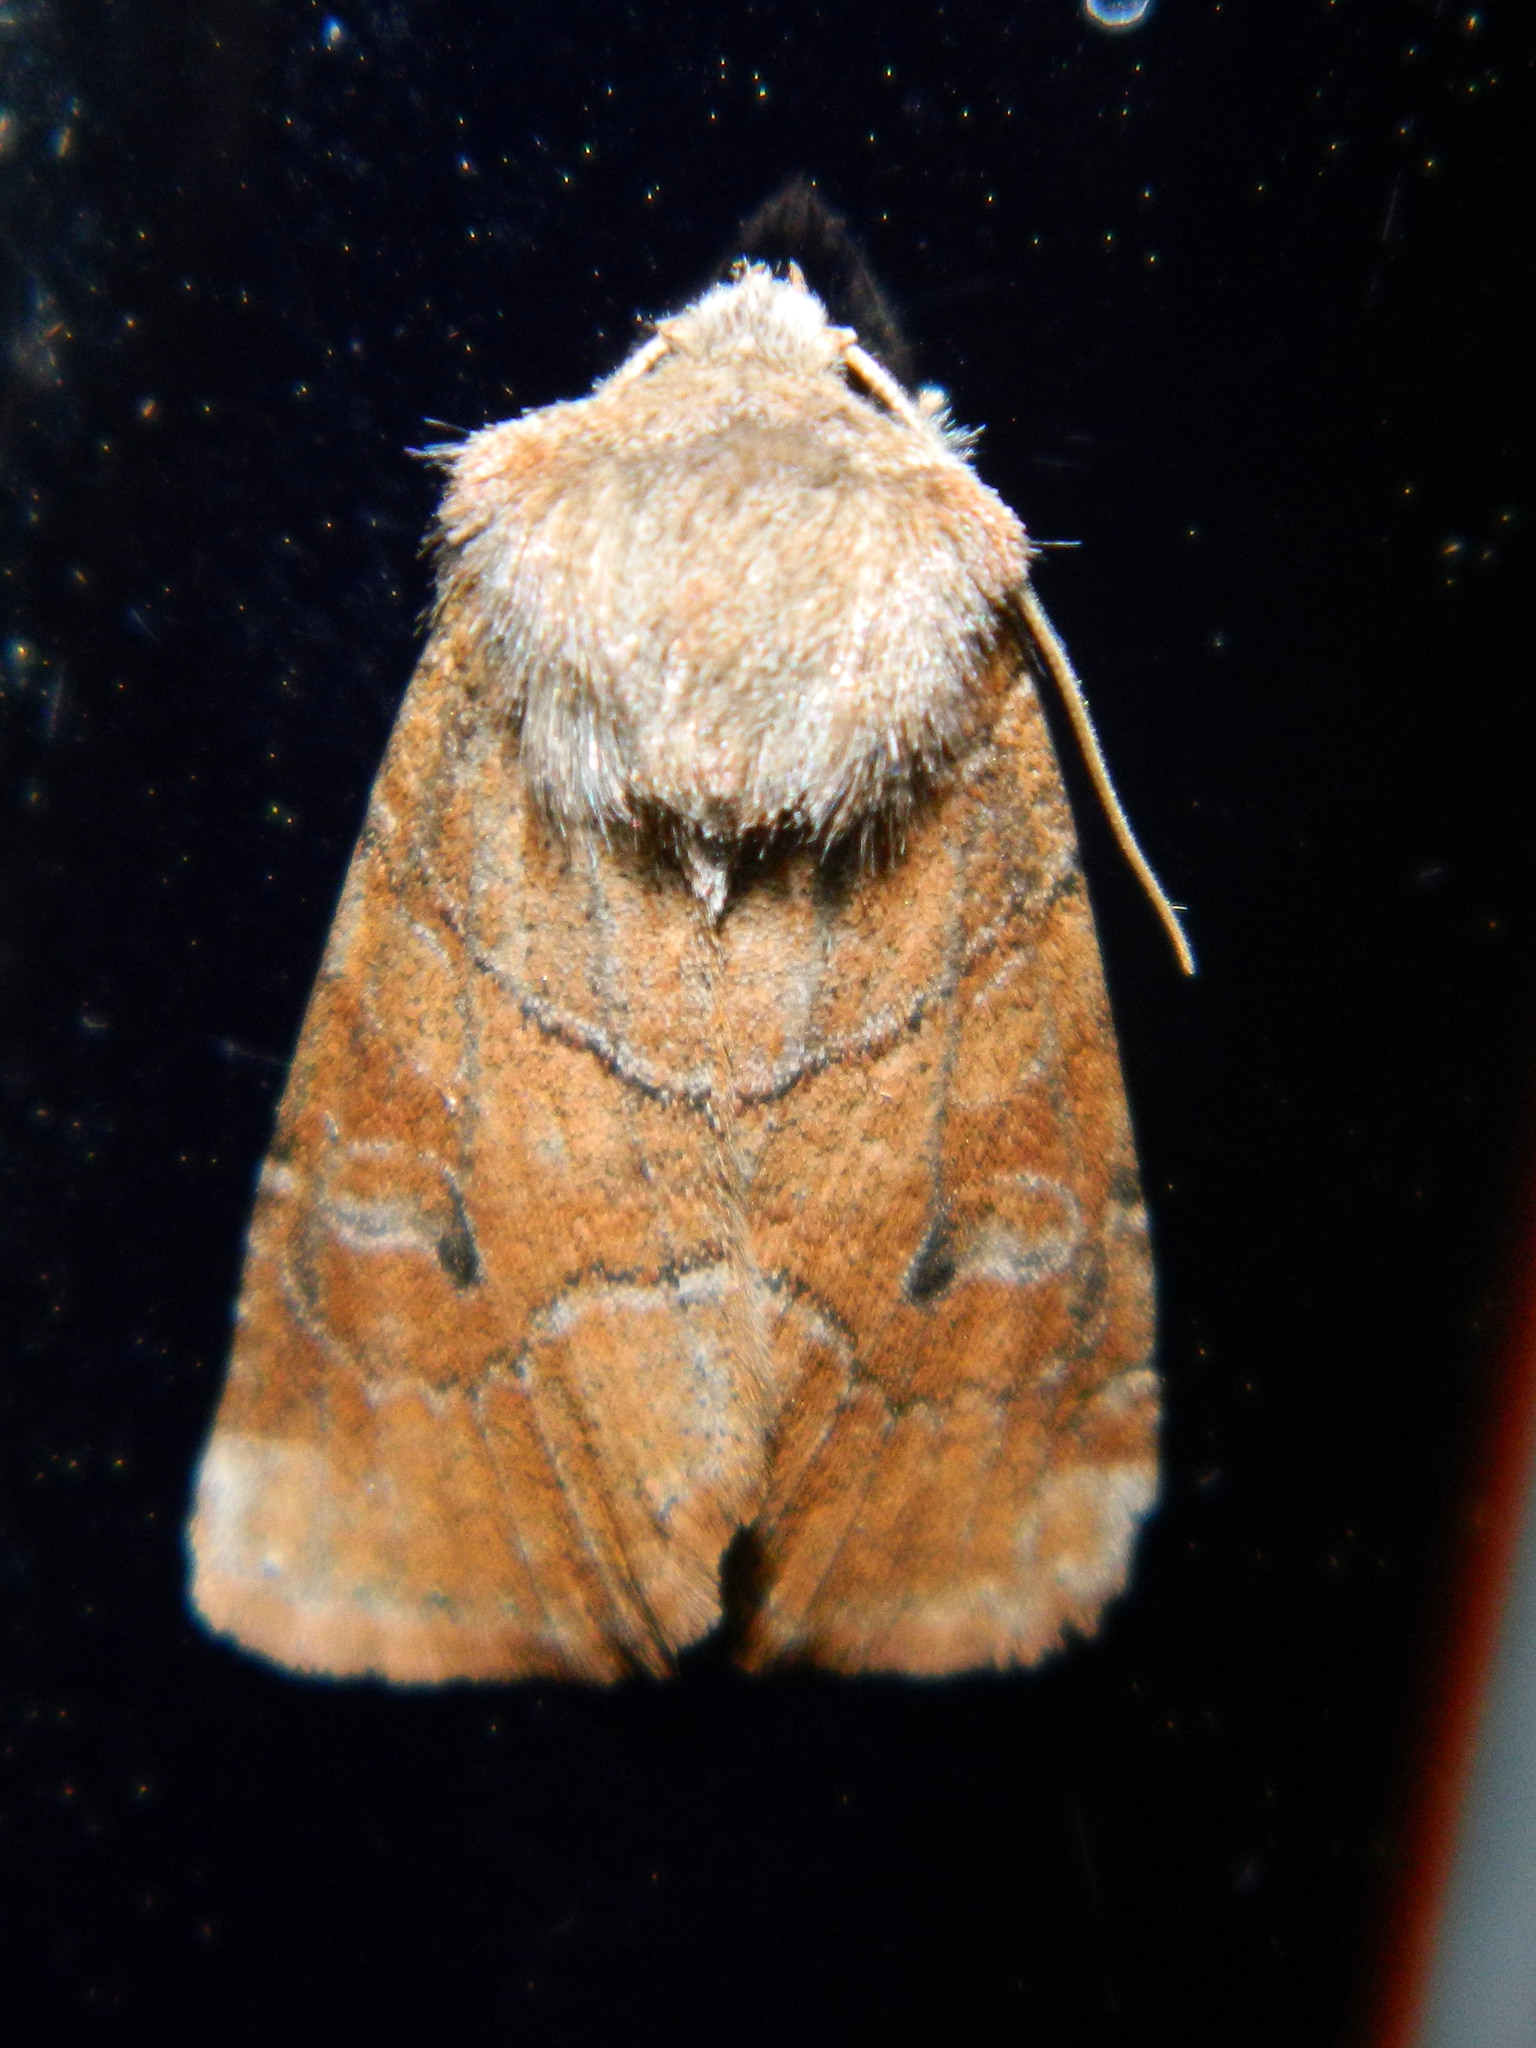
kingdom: Animalia
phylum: Arthropoda
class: Insecta
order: Lepidoptera
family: Noctuidae
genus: Crocigrapha
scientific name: Crocigrapha normani
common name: Norman's quaker
